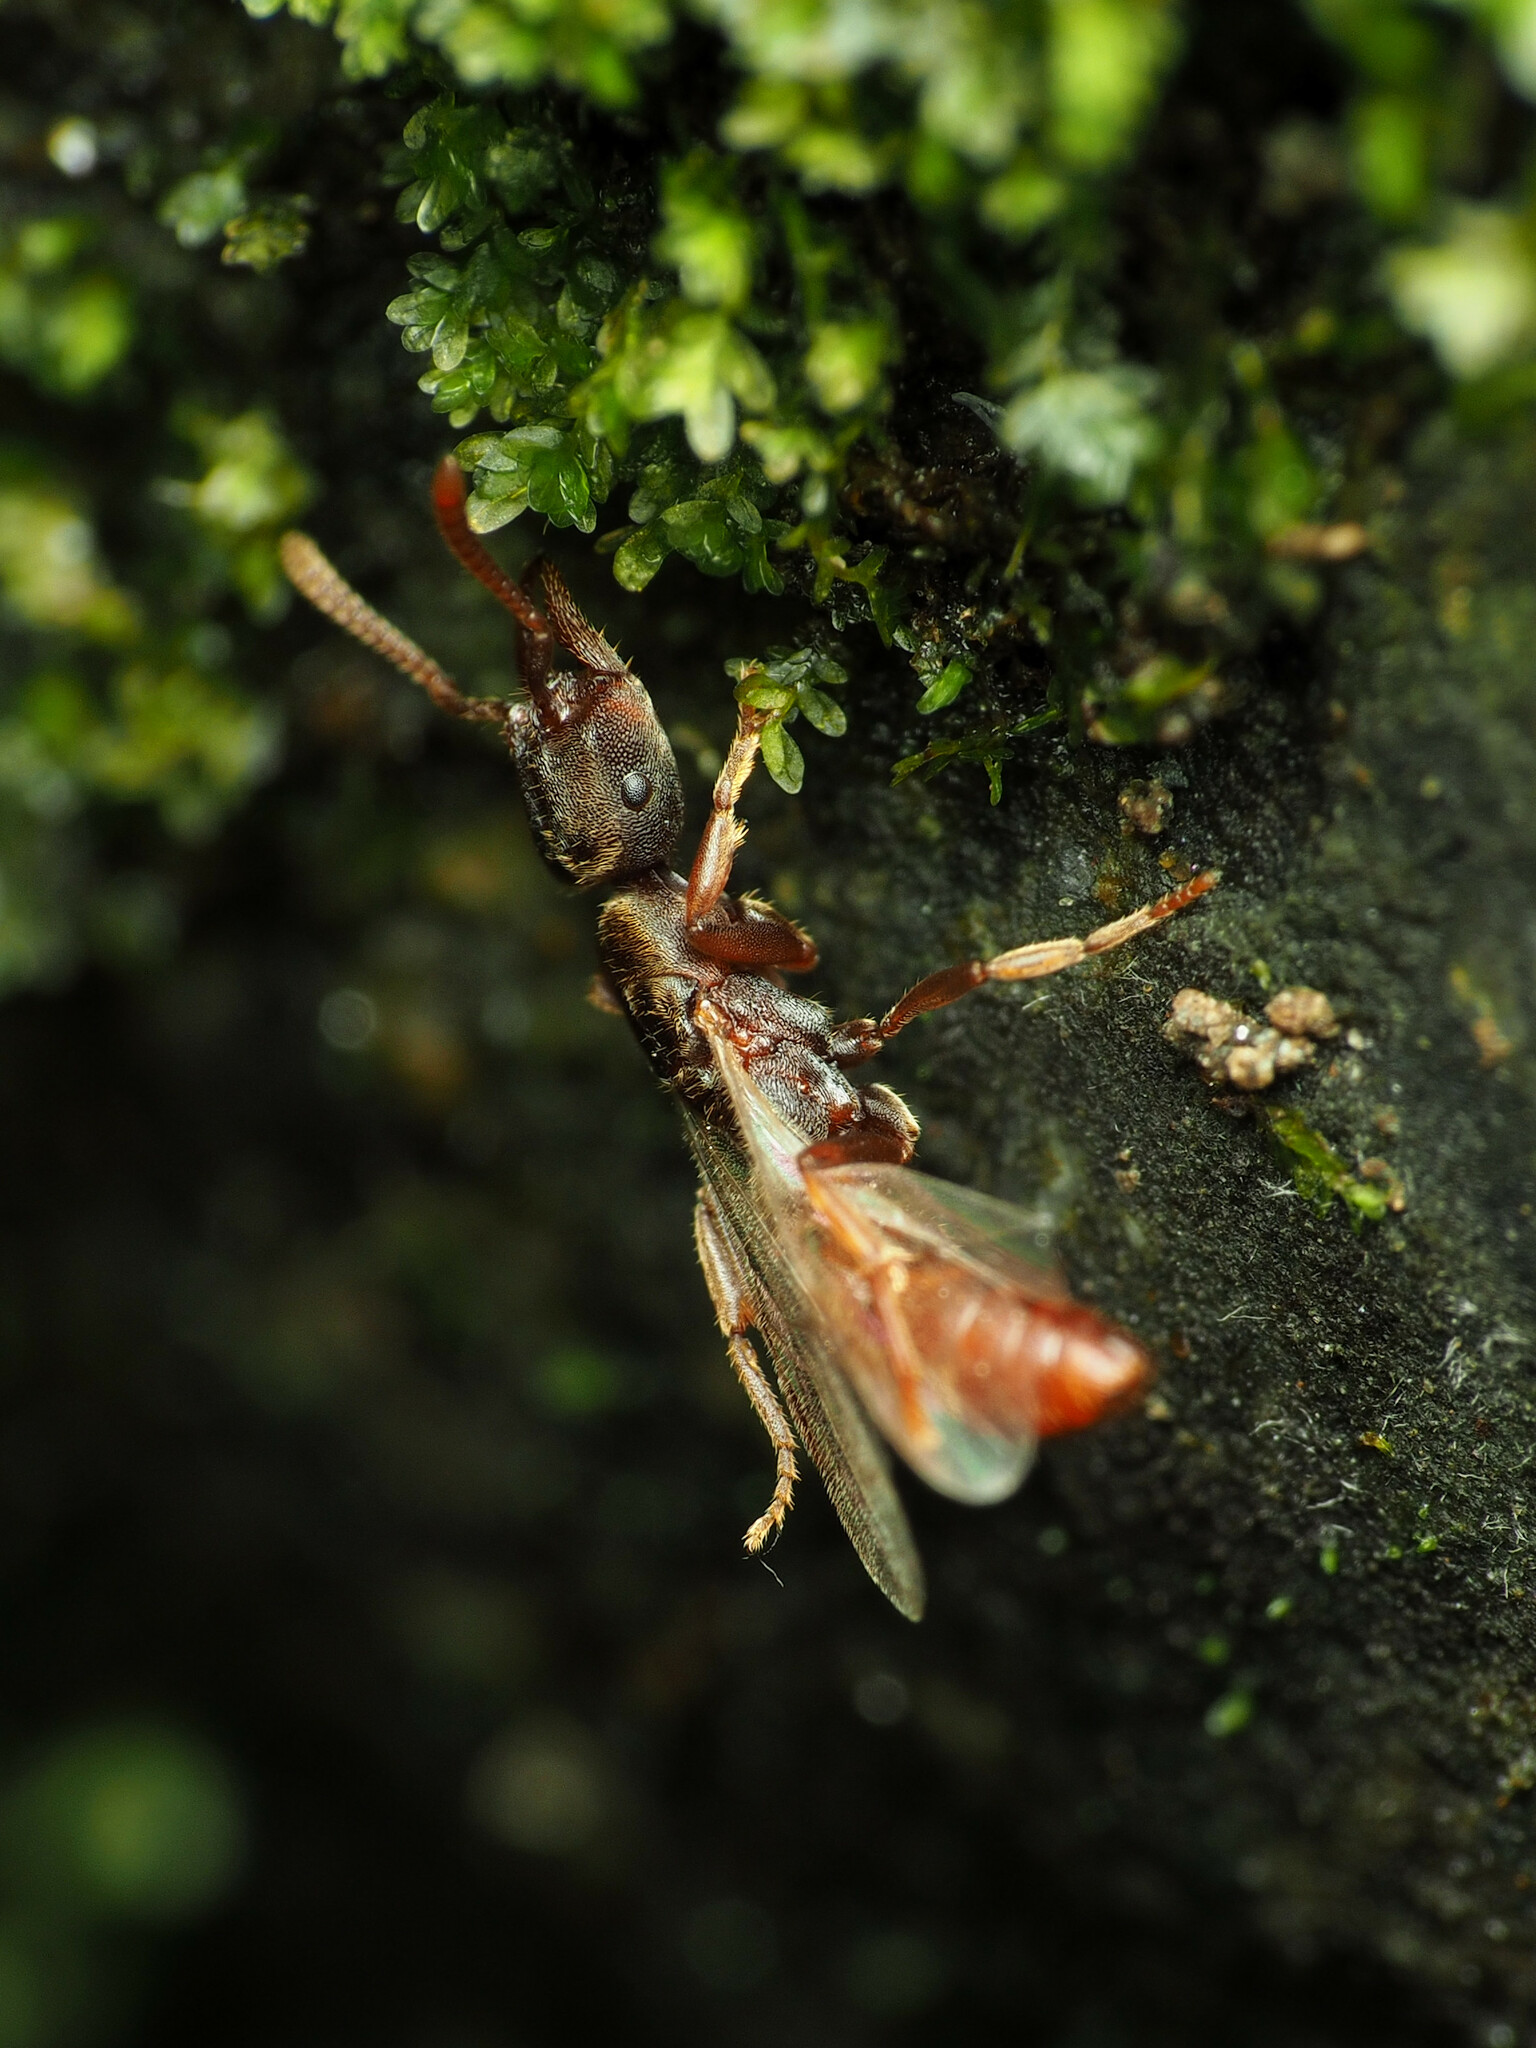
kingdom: Animalia
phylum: Arthropoda
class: Insecta
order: Hymenoptera
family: Formicidae
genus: Stigmatomma
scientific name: Stigmatomma pallipes
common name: Vampire ant
